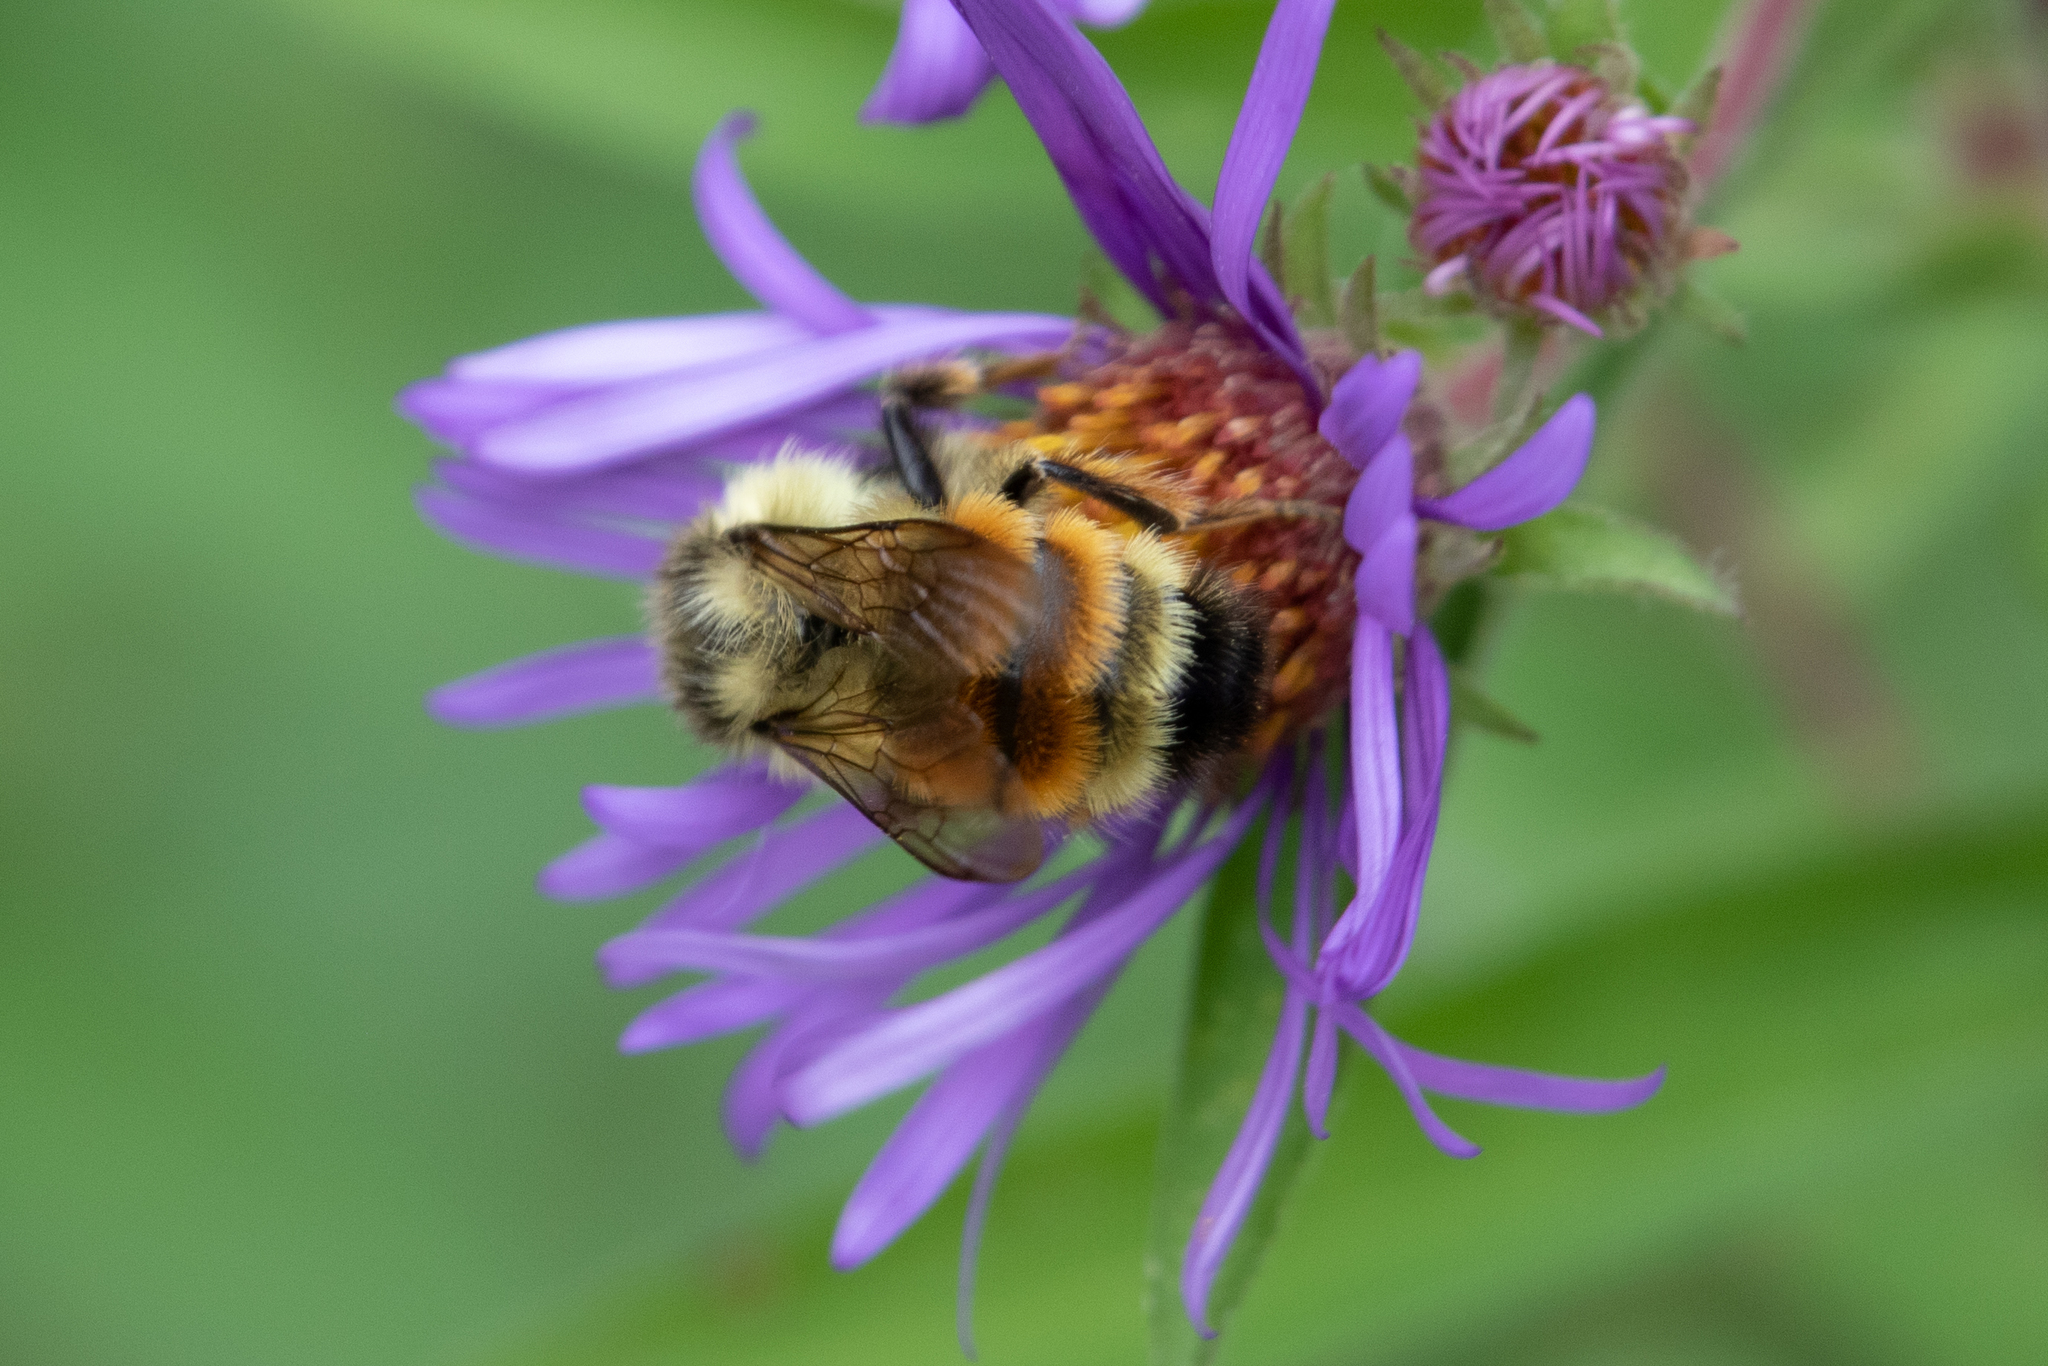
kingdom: Animalia
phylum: Arthropoda
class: Insecta
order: Hymenoptera
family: Apidae
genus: Bombus
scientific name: Bombus ternarius
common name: Tri-colored bumble bee
